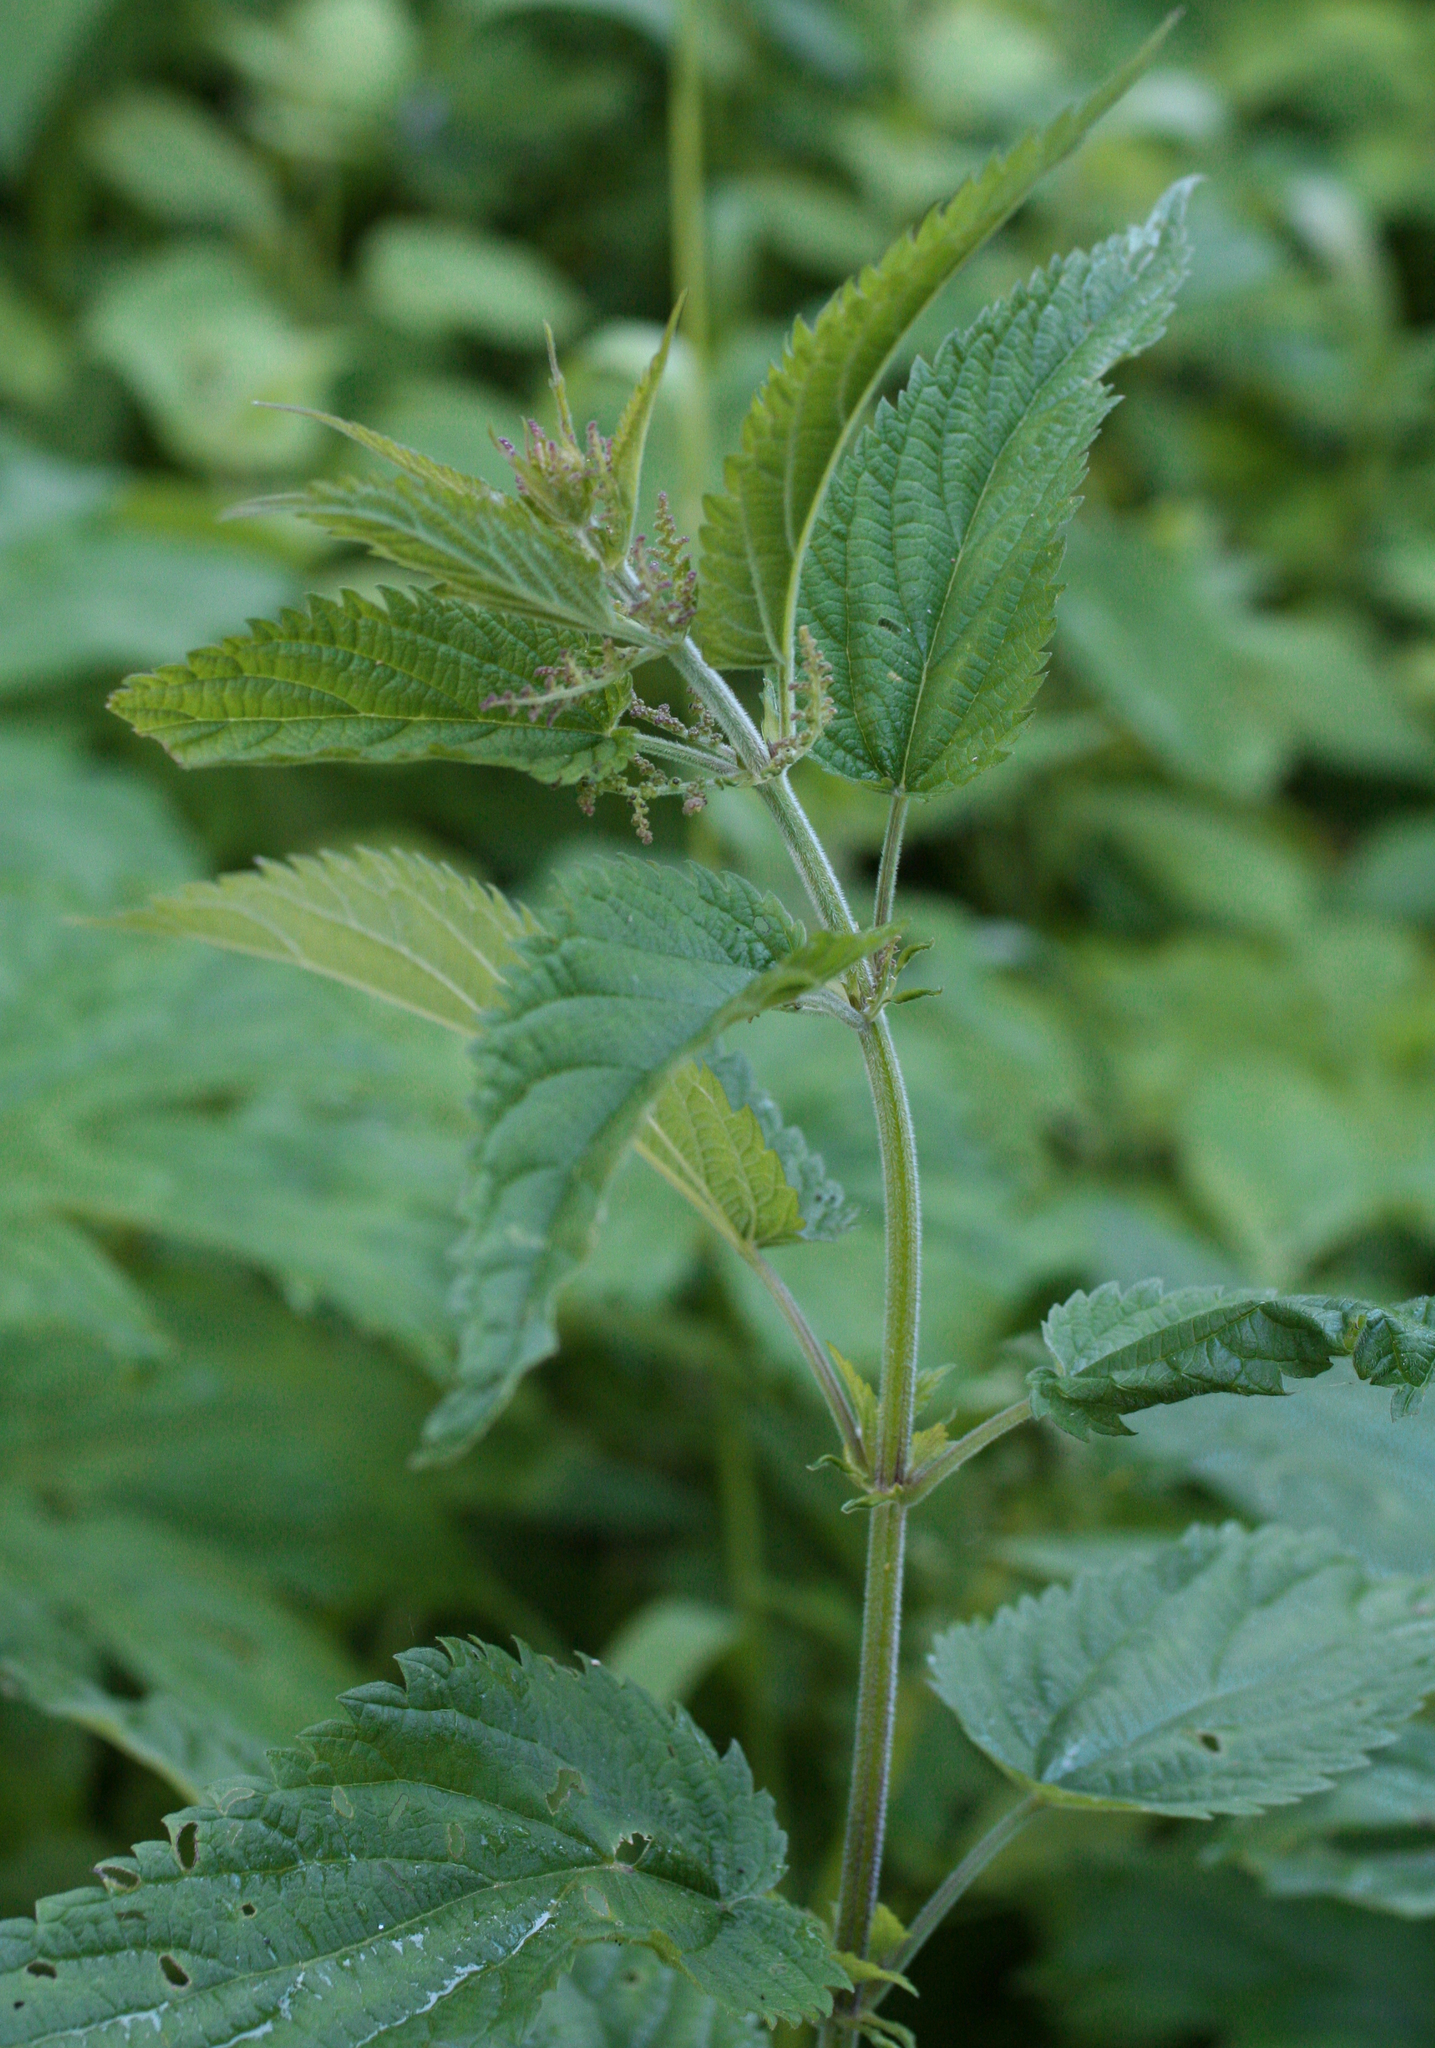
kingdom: Plantae
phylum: Tracheophyta
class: Magnoliopsida
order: Rosales
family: Urticaceae
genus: Urtica
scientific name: Urtica galeopsifolia
